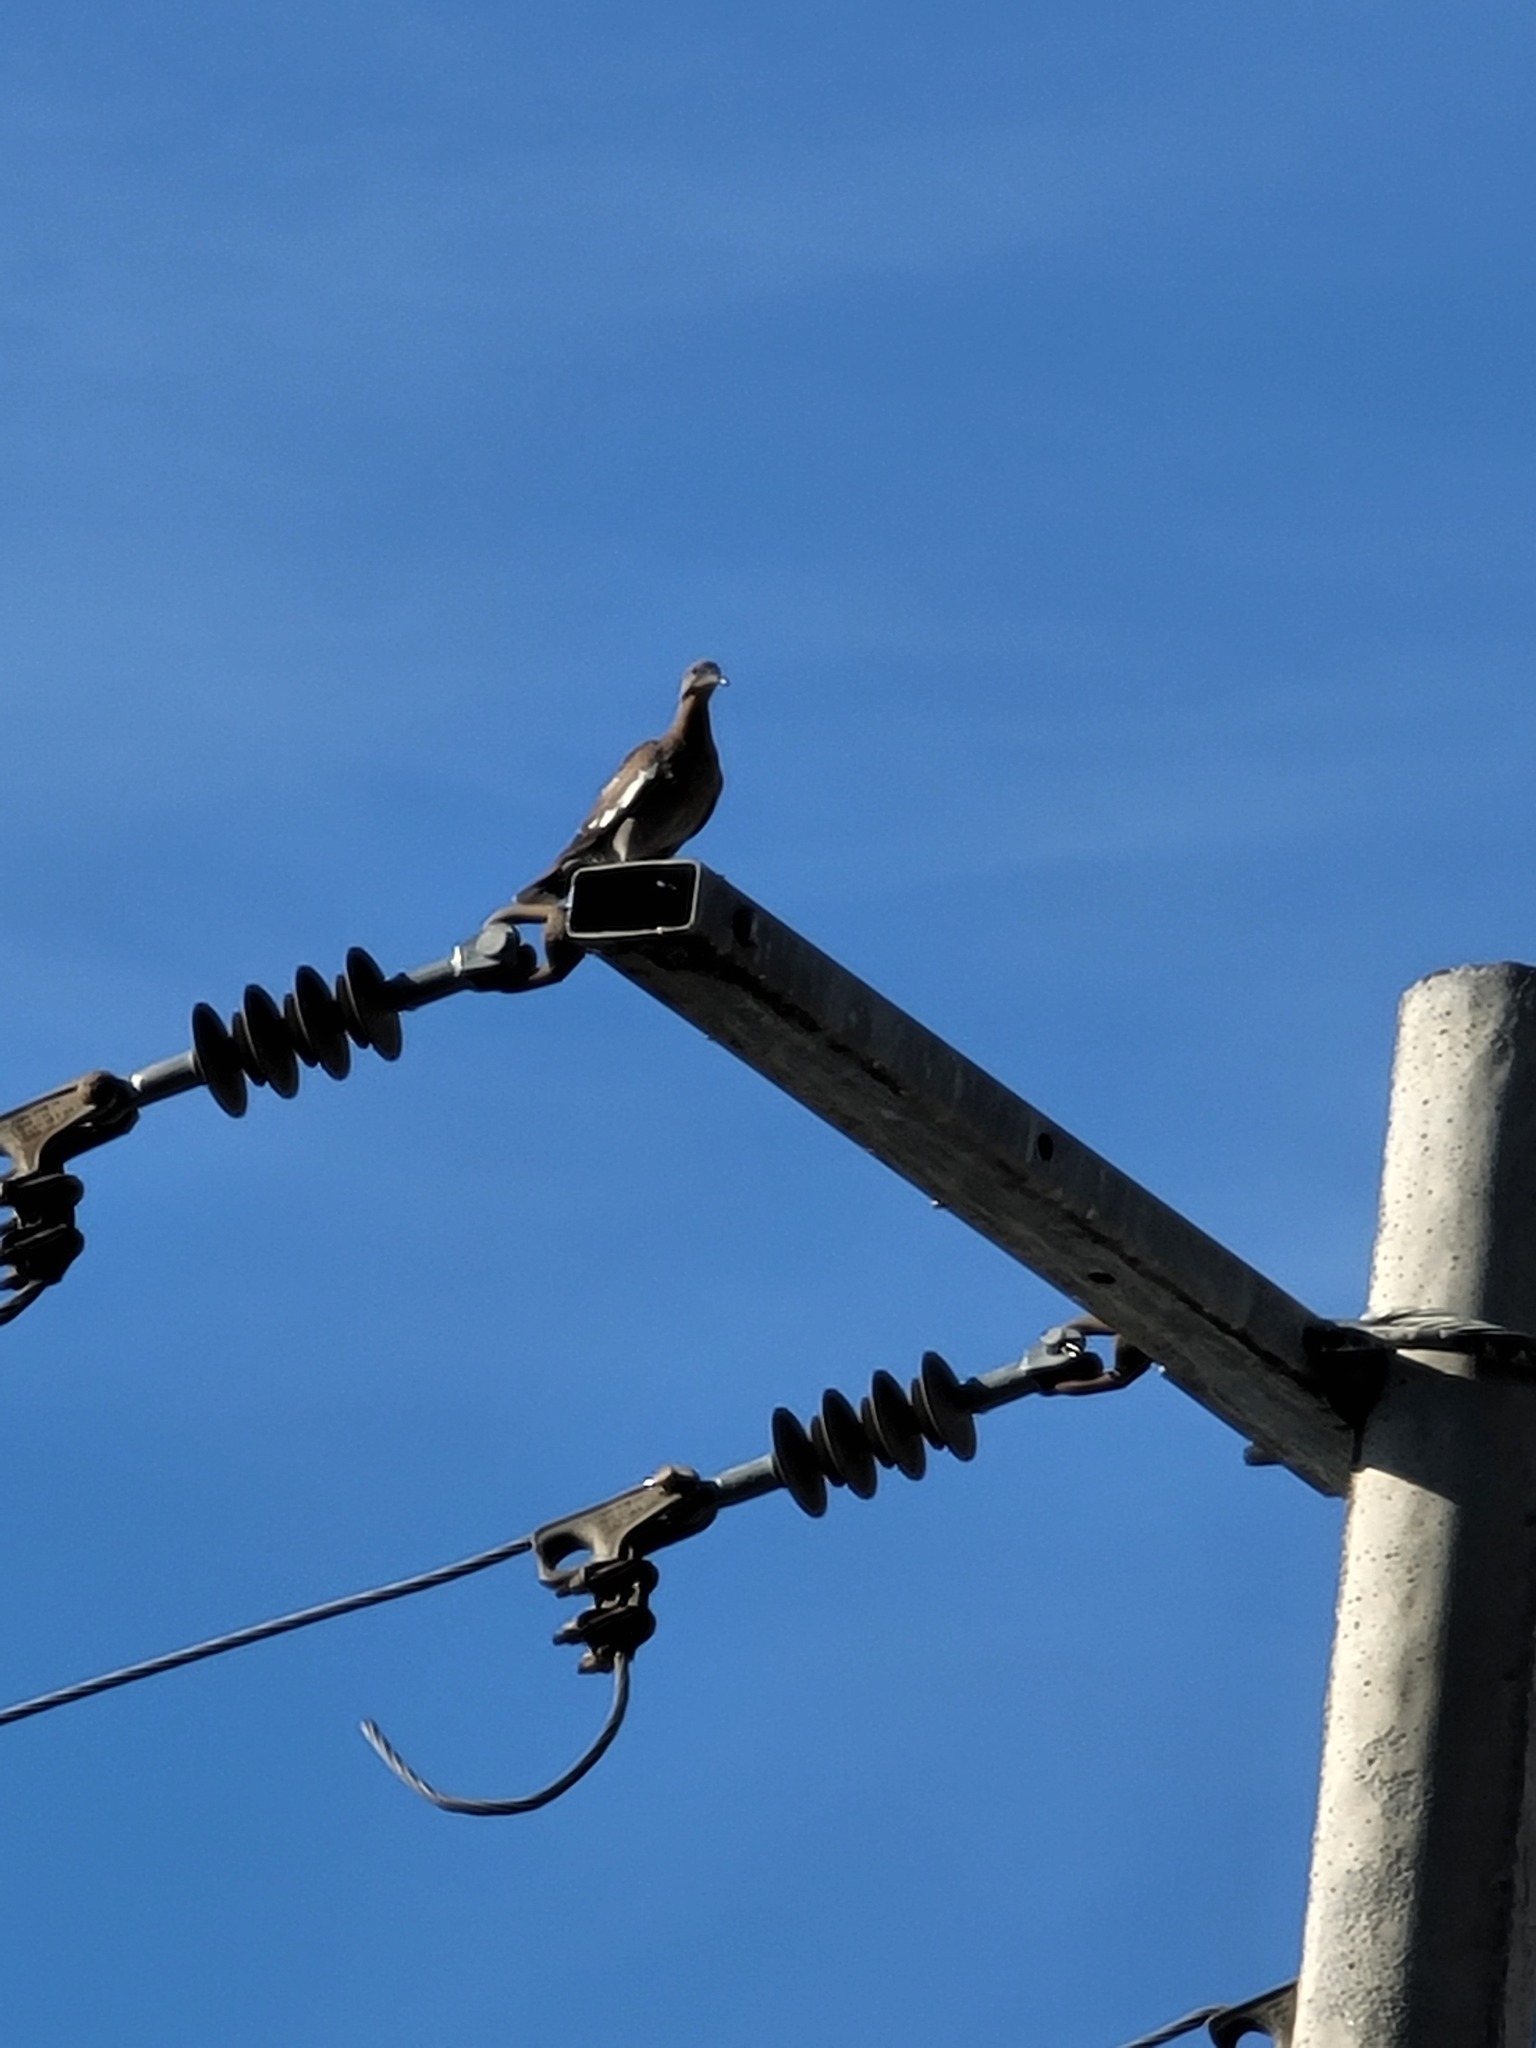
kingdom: Animalia
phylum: Chordata
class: Aves
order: Columbiformes
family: Columbidae
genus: Zenaida
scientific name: Zenaida asiatica
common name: White-winged dove
